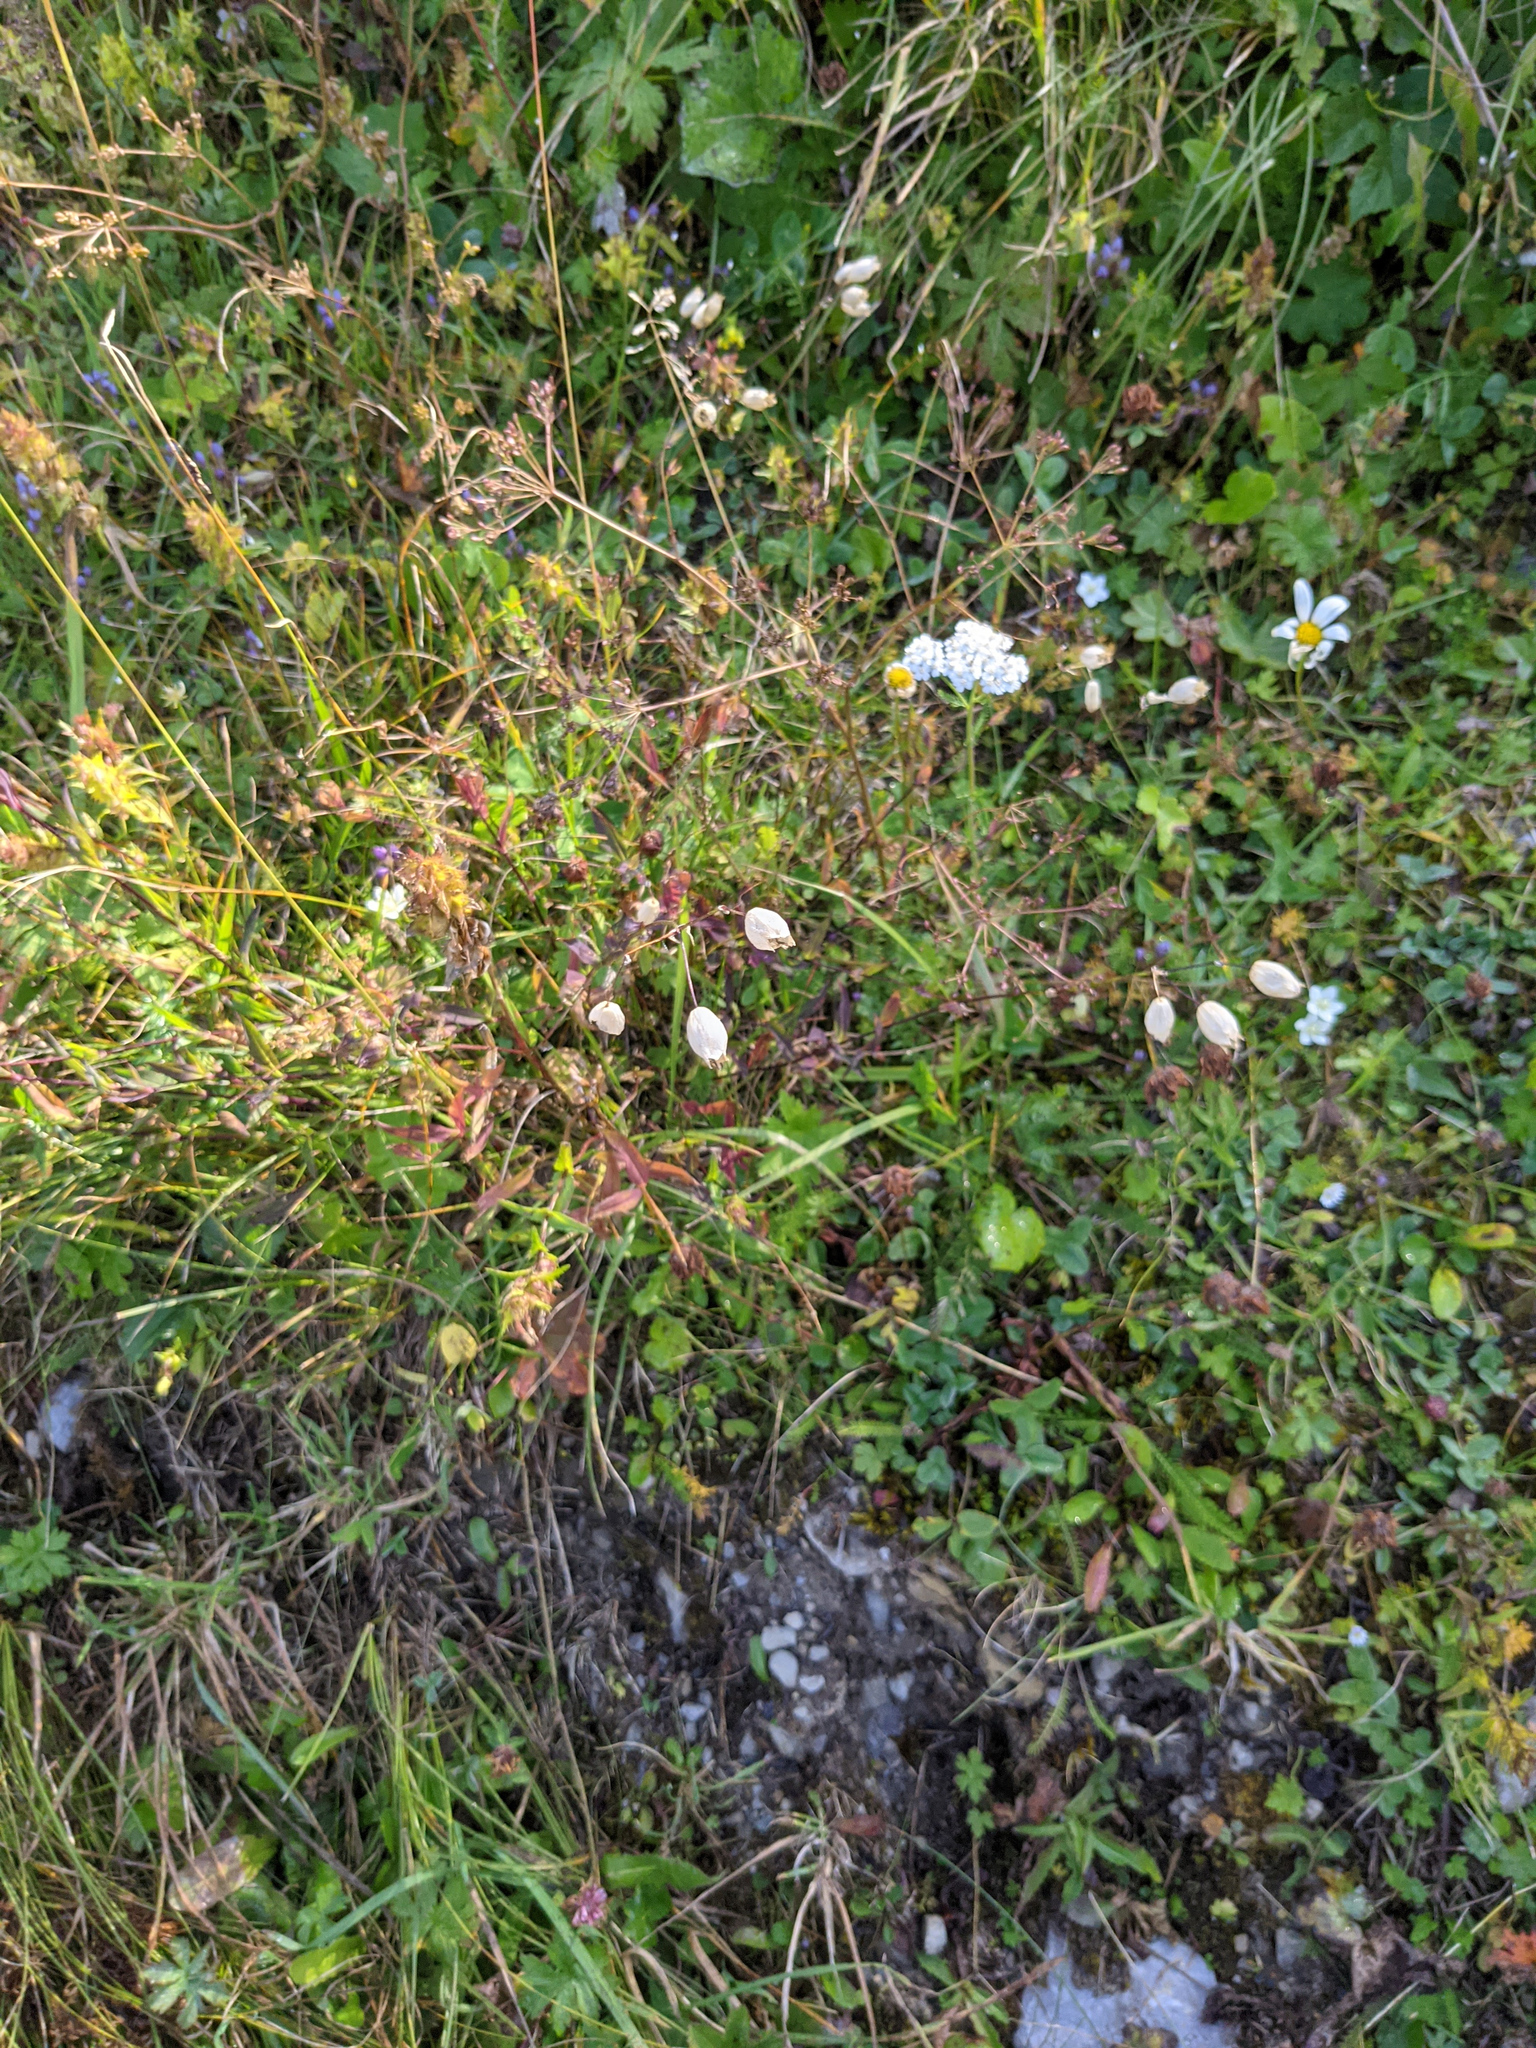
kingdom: Plantae
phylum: Tracheophyta
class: Magnoliopsida
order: Caryophyllales
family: Caryophyllaceae
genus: Silene
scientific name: Silene vulgaris
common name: Bladder campion
